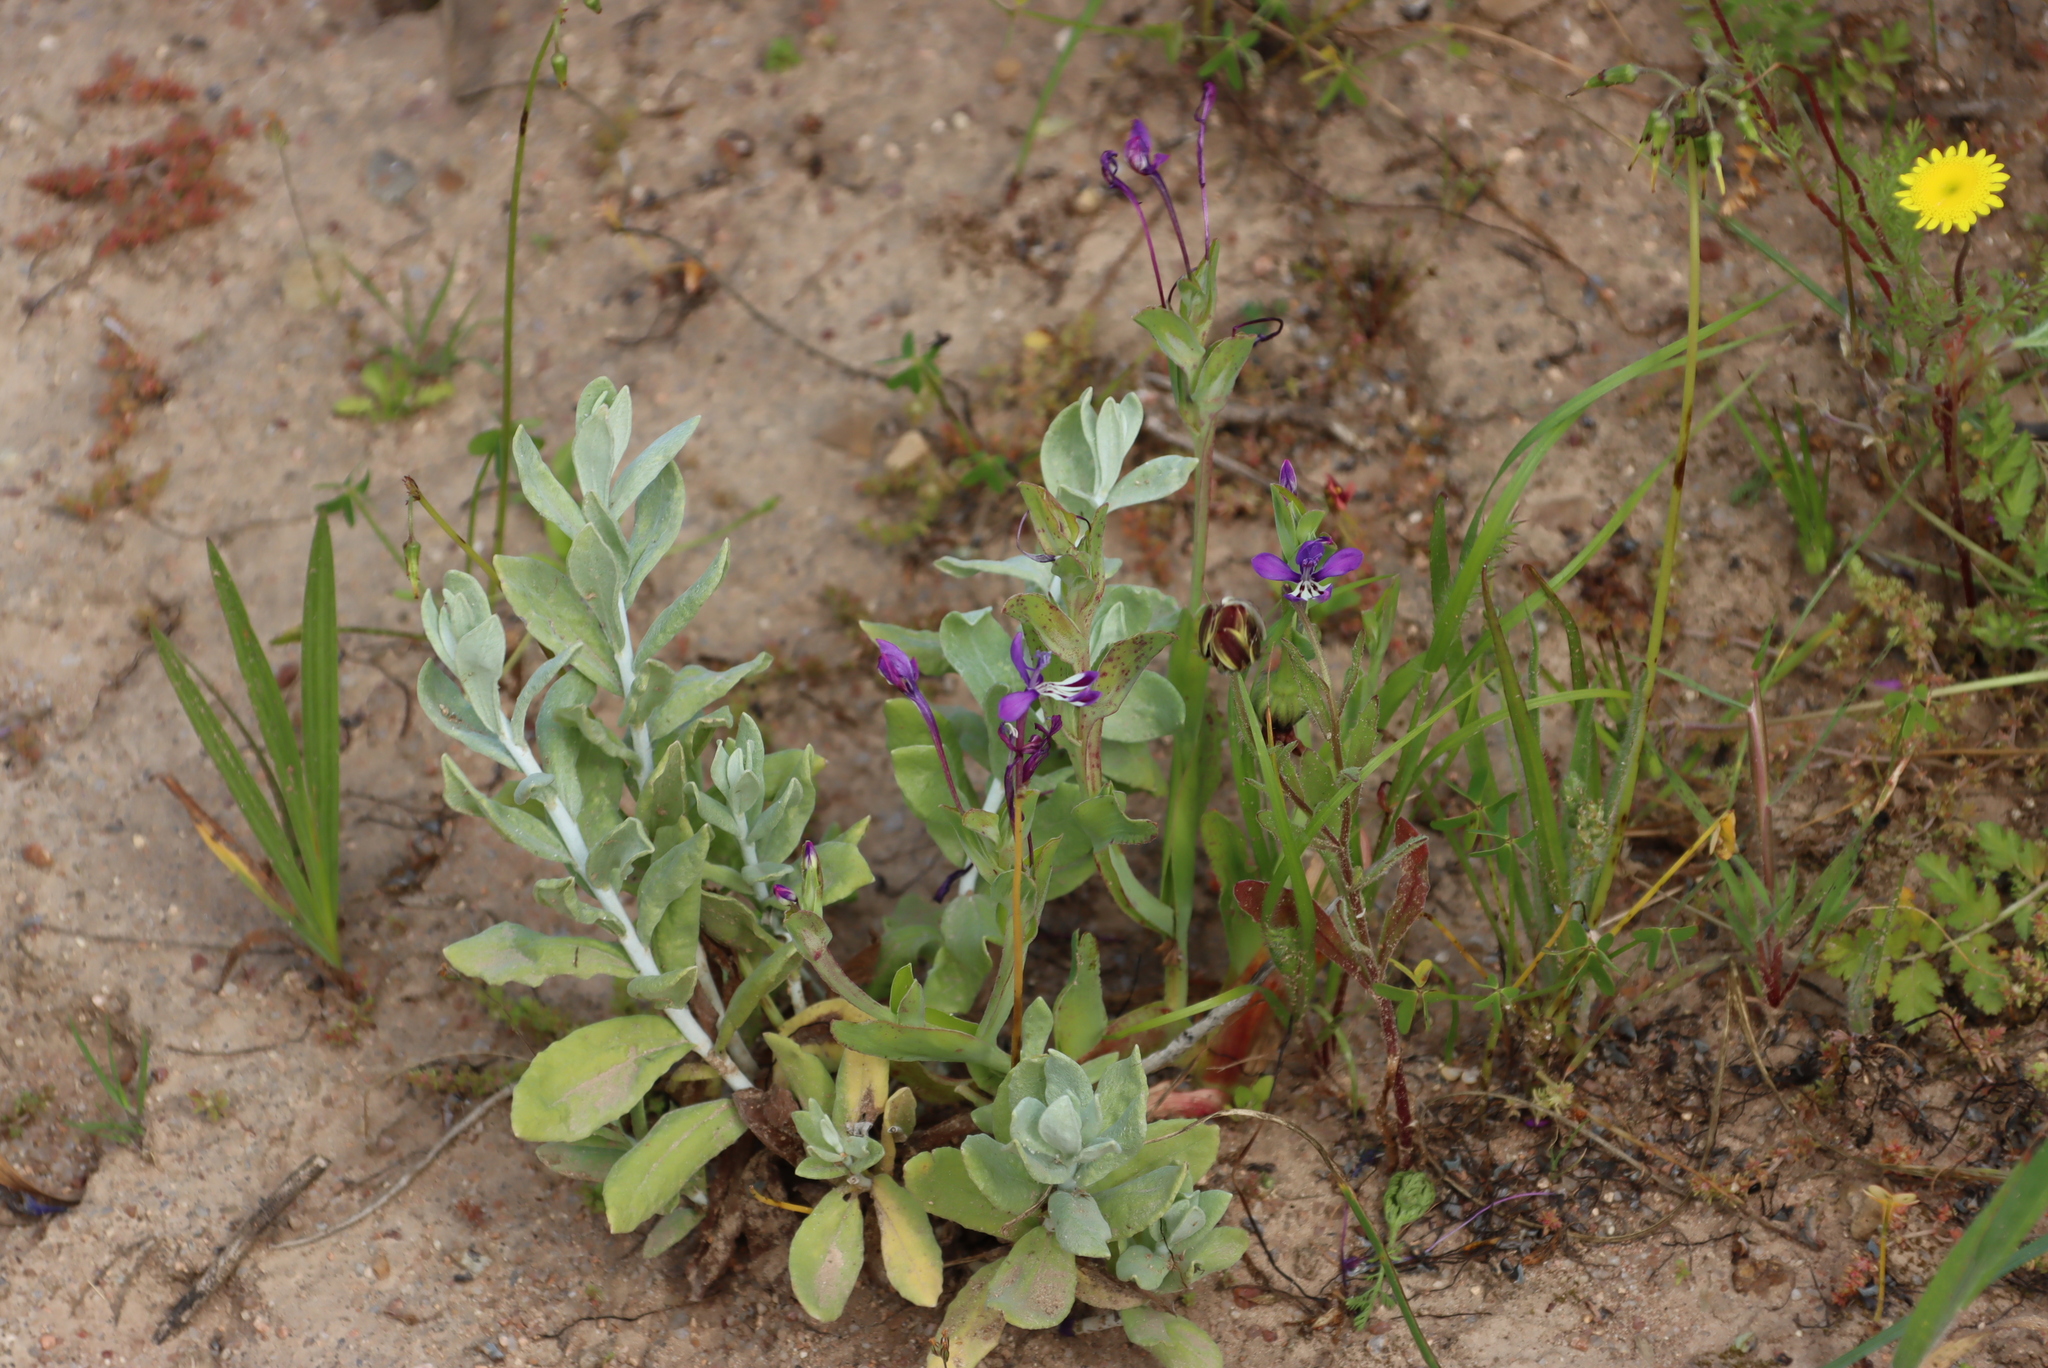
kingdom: Plantae
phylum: Tracheophyta
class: Liliopsida
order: Asparagales
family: Iridaceae
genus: Lapeirousia
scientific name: Lapeirousia jacquinii
